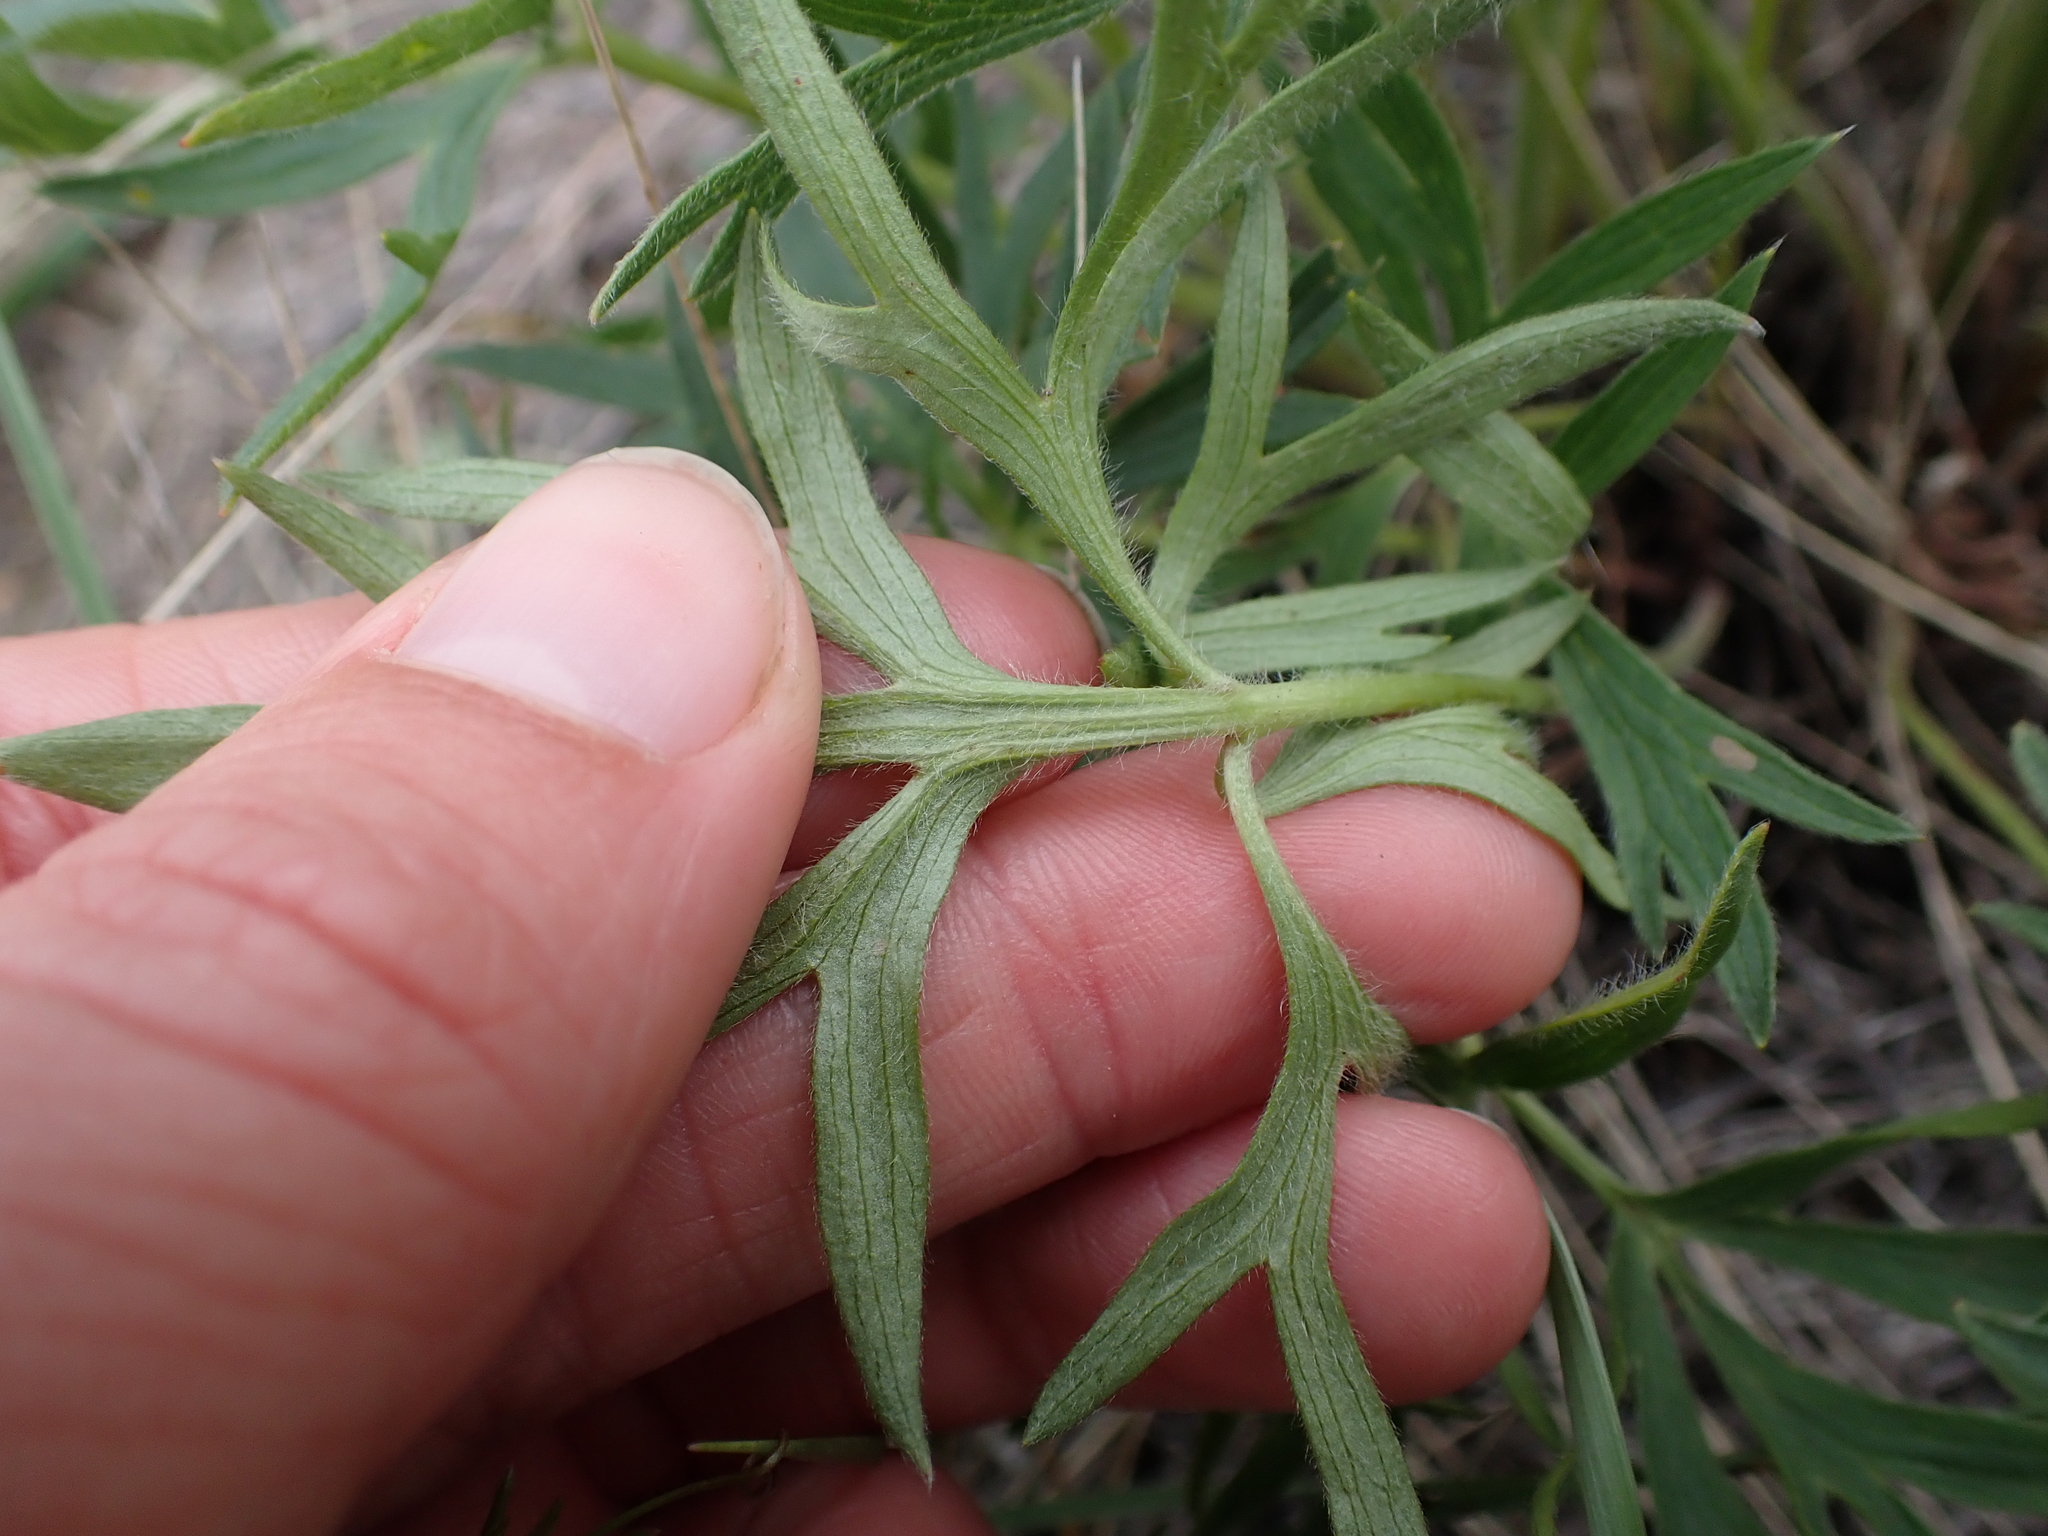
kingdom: Plantae
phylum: Tracheophyta
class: Magnoliopsida
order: Ranunculales
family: Ranunculaceae
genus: Pulsatilla
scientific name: Pulsatilla nuttalliana
